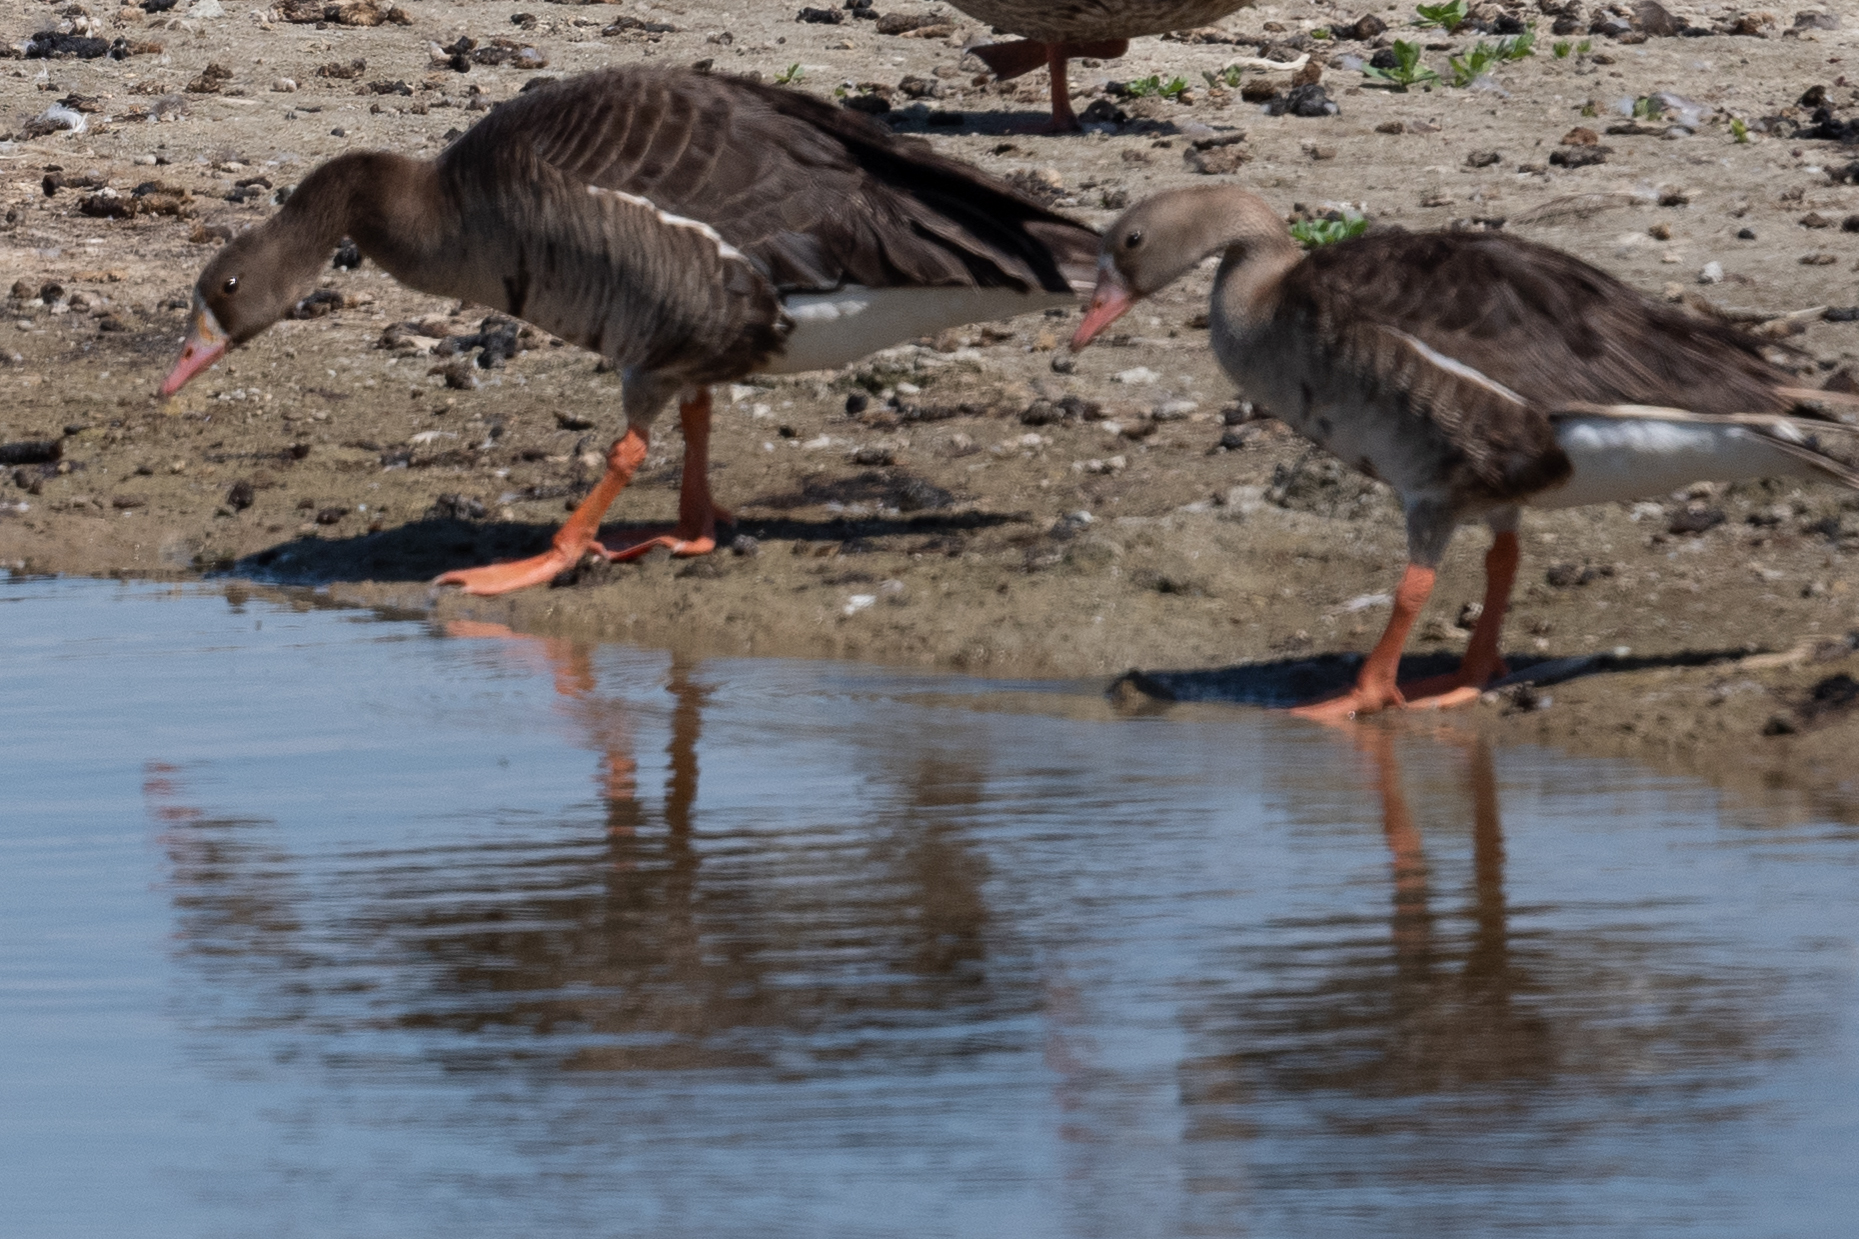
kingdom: Animalia
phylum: Chordata
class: Aves
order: Anseriformes
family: Anatidae
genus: Anser
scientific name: Anser albifrons
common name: Greater white-fronted goose
